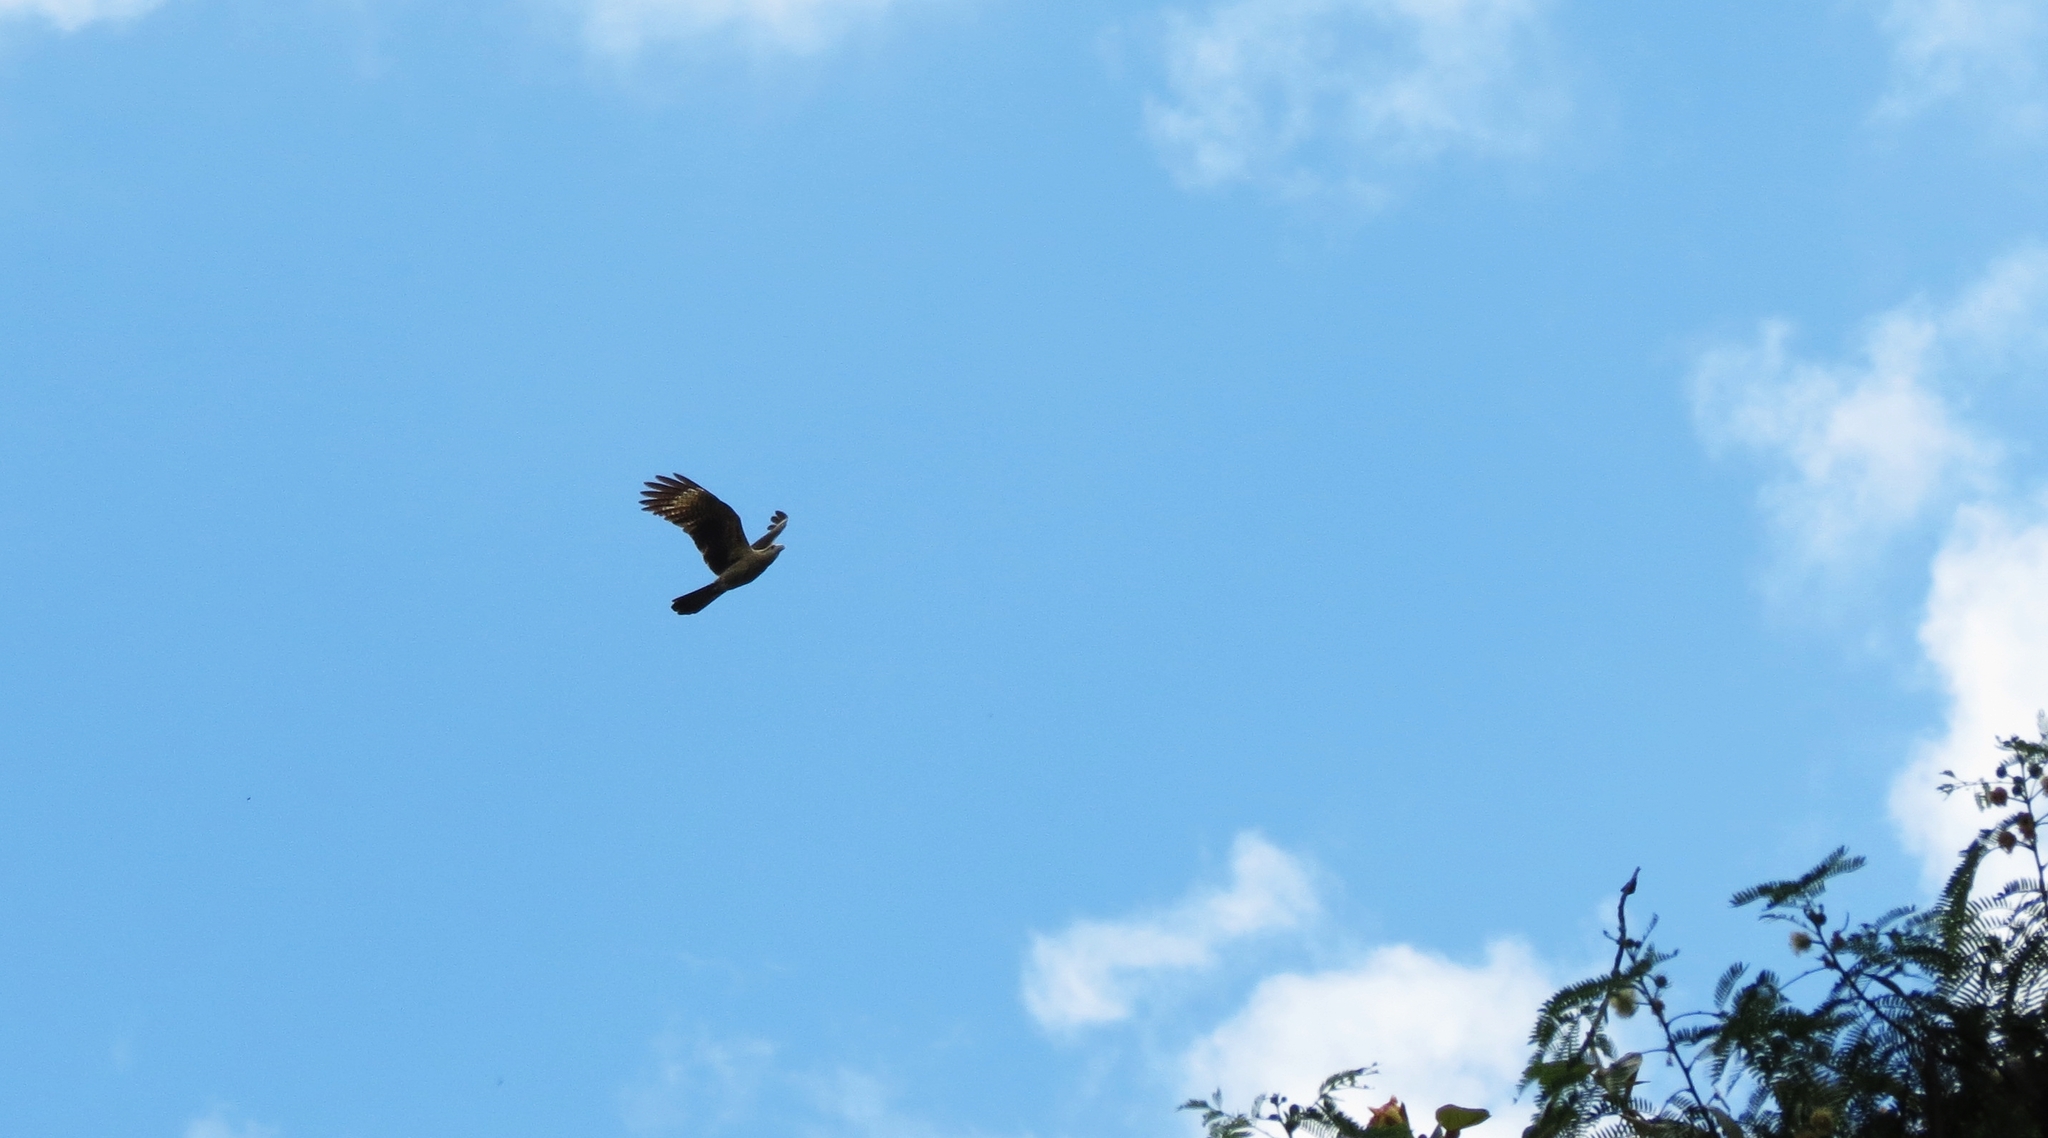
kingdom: Animalia
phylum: Chordata
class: Aves
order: Falconiformes
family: Falconidae
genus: Daptrius
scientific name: Daptrius
